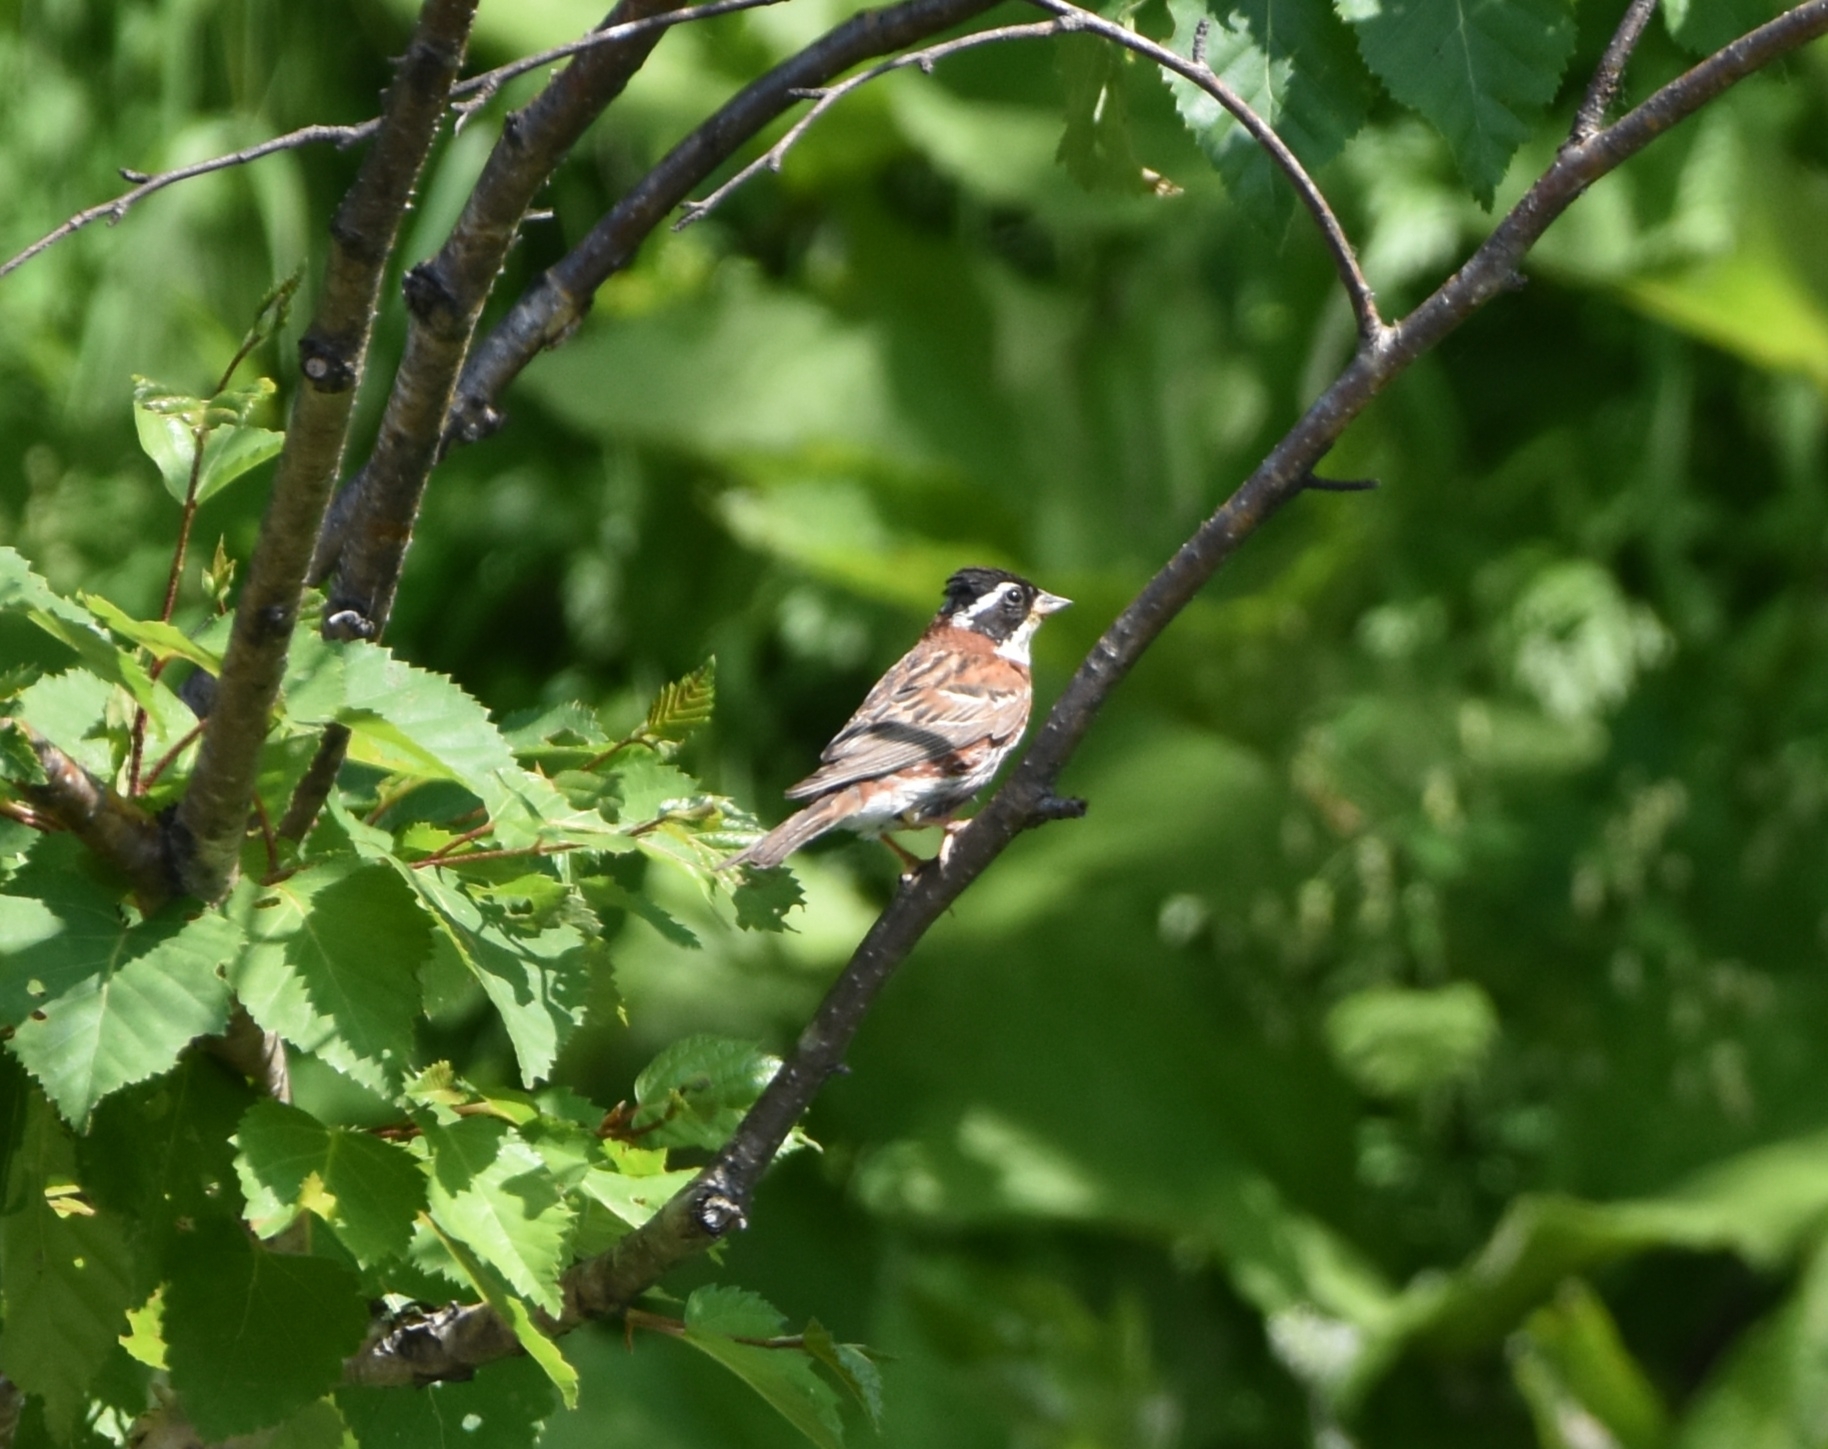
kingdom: Animalia
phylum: Chordata
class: Aves
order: Passeriformes
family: Emberizidae
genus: Emberiza
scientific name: Emberiza rustica
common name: Rustic bunting
